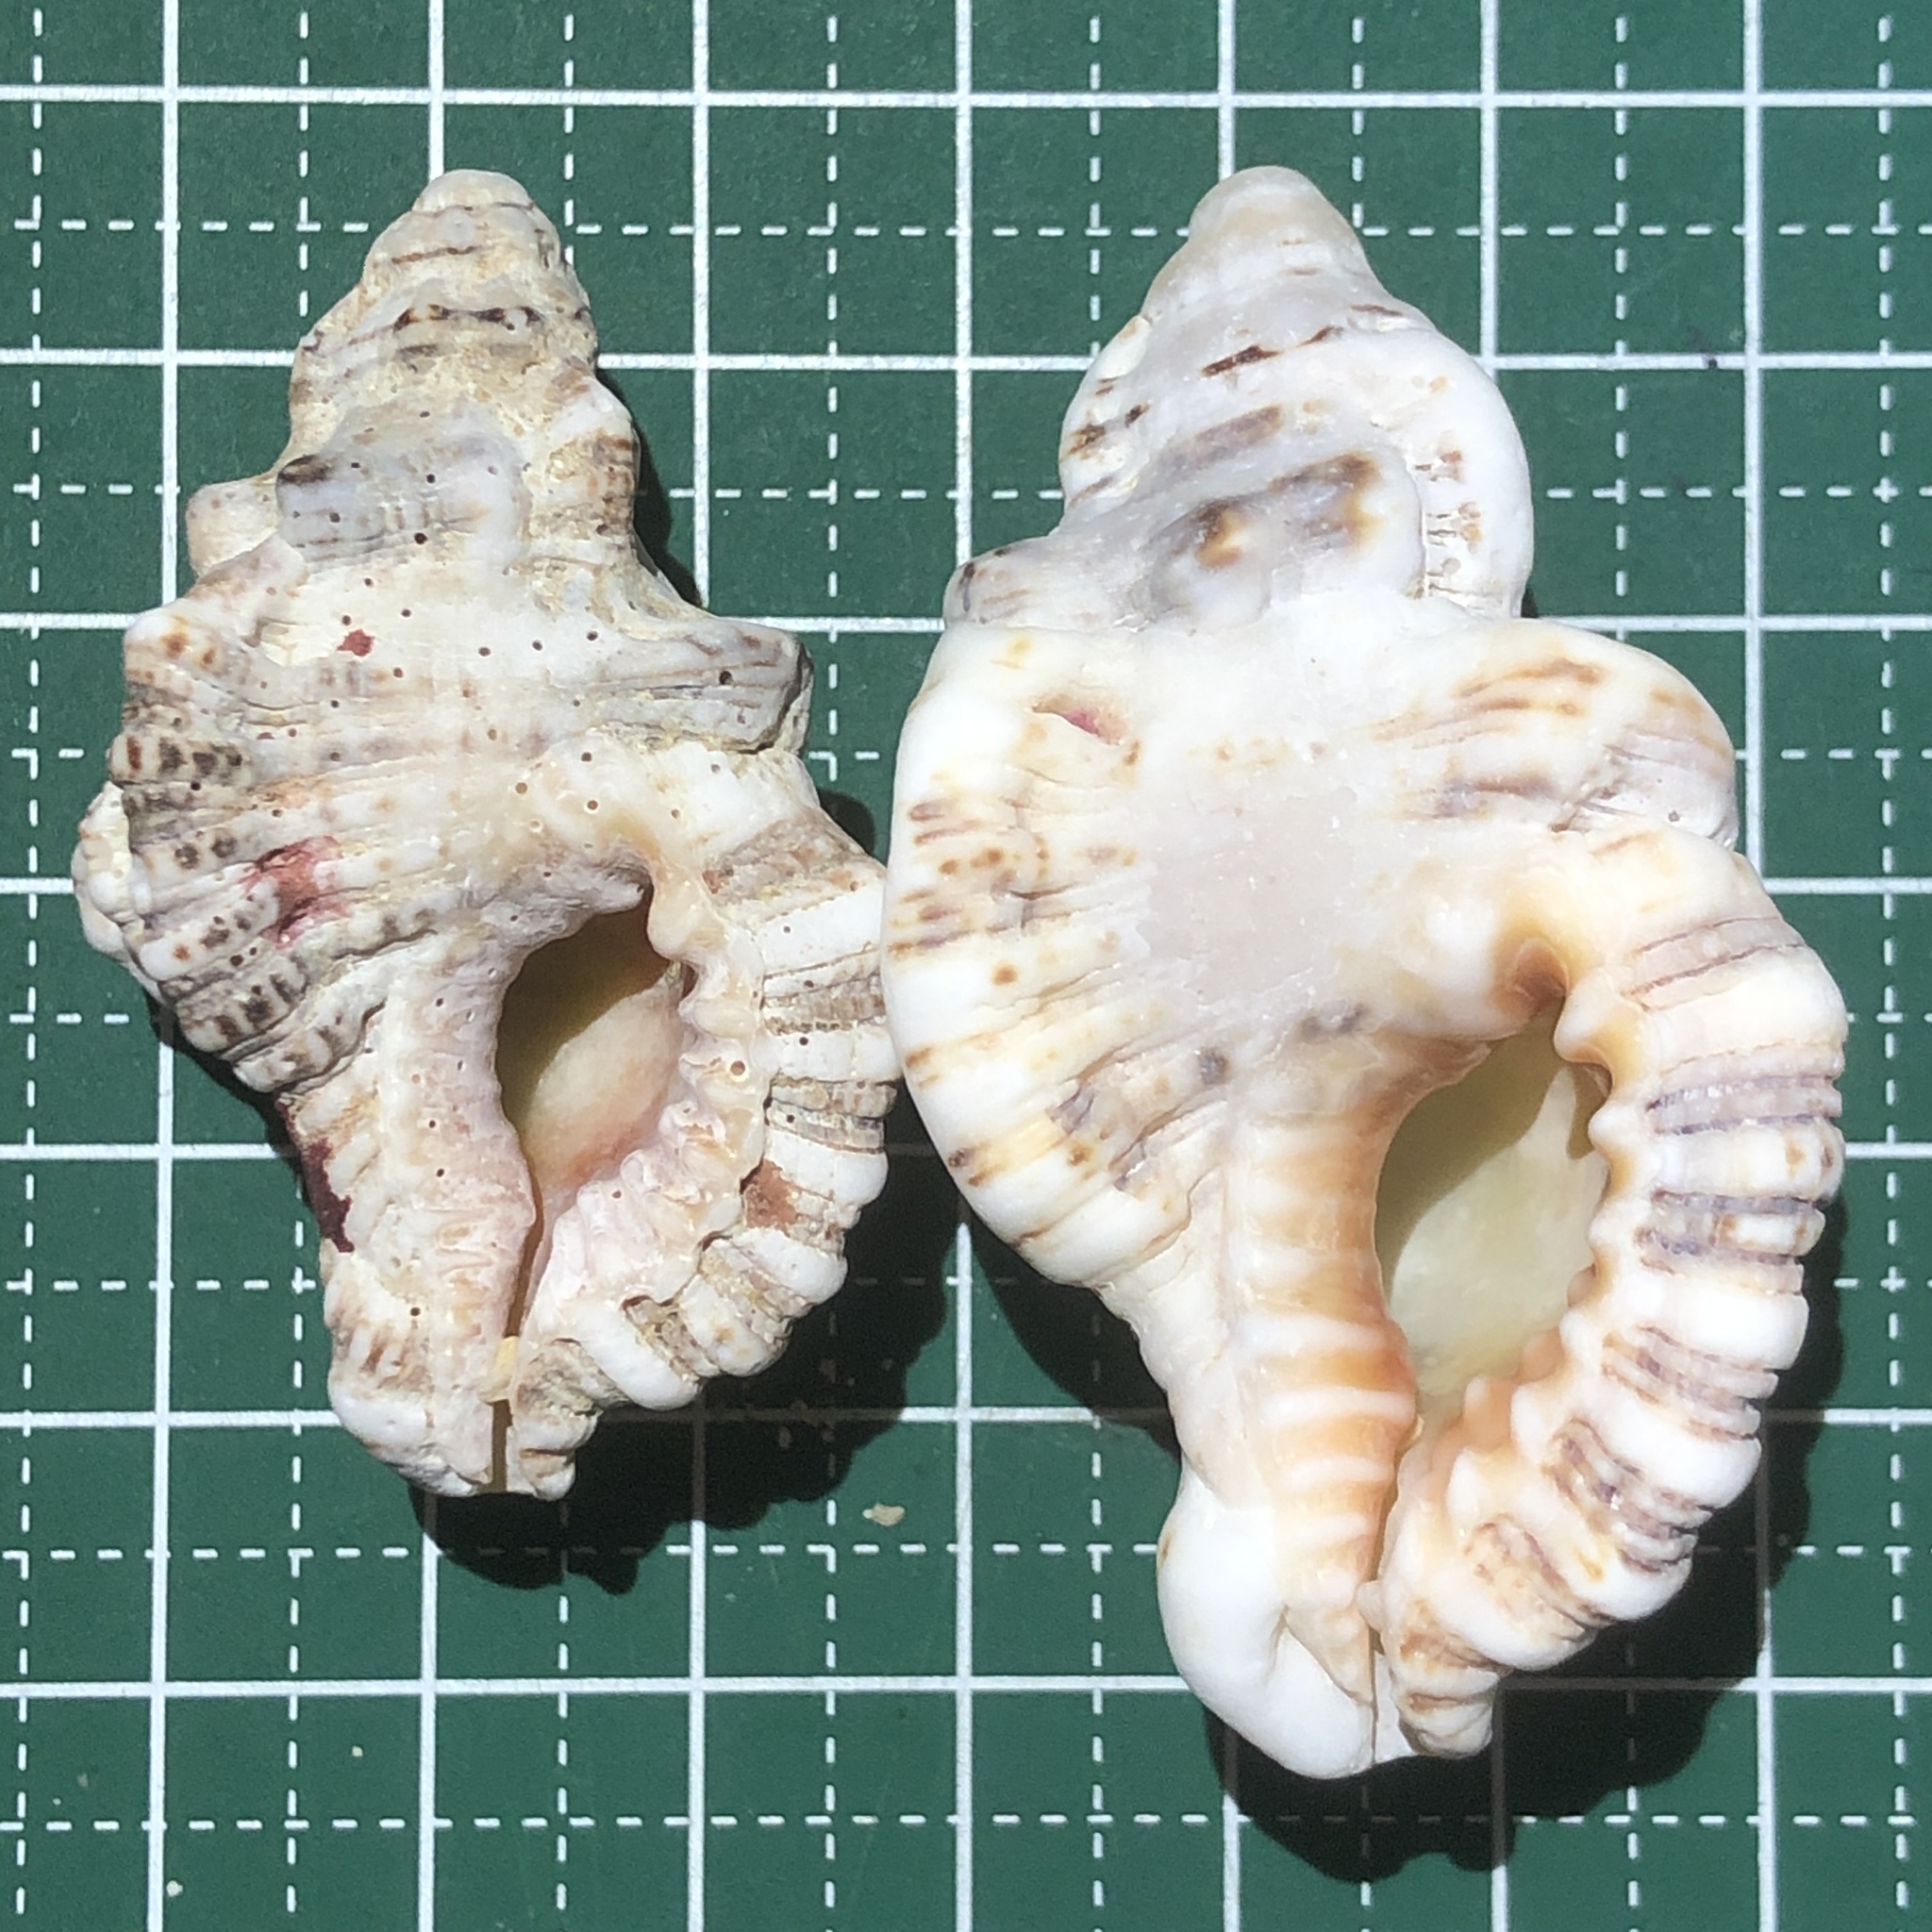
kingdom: Animalia
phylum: Mollusca
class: Gastropoda
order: Littorinimorpha
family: Cymatiidae
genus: Monoplex
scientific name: Monoplex nicobaricus
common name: Goldmouth triton
